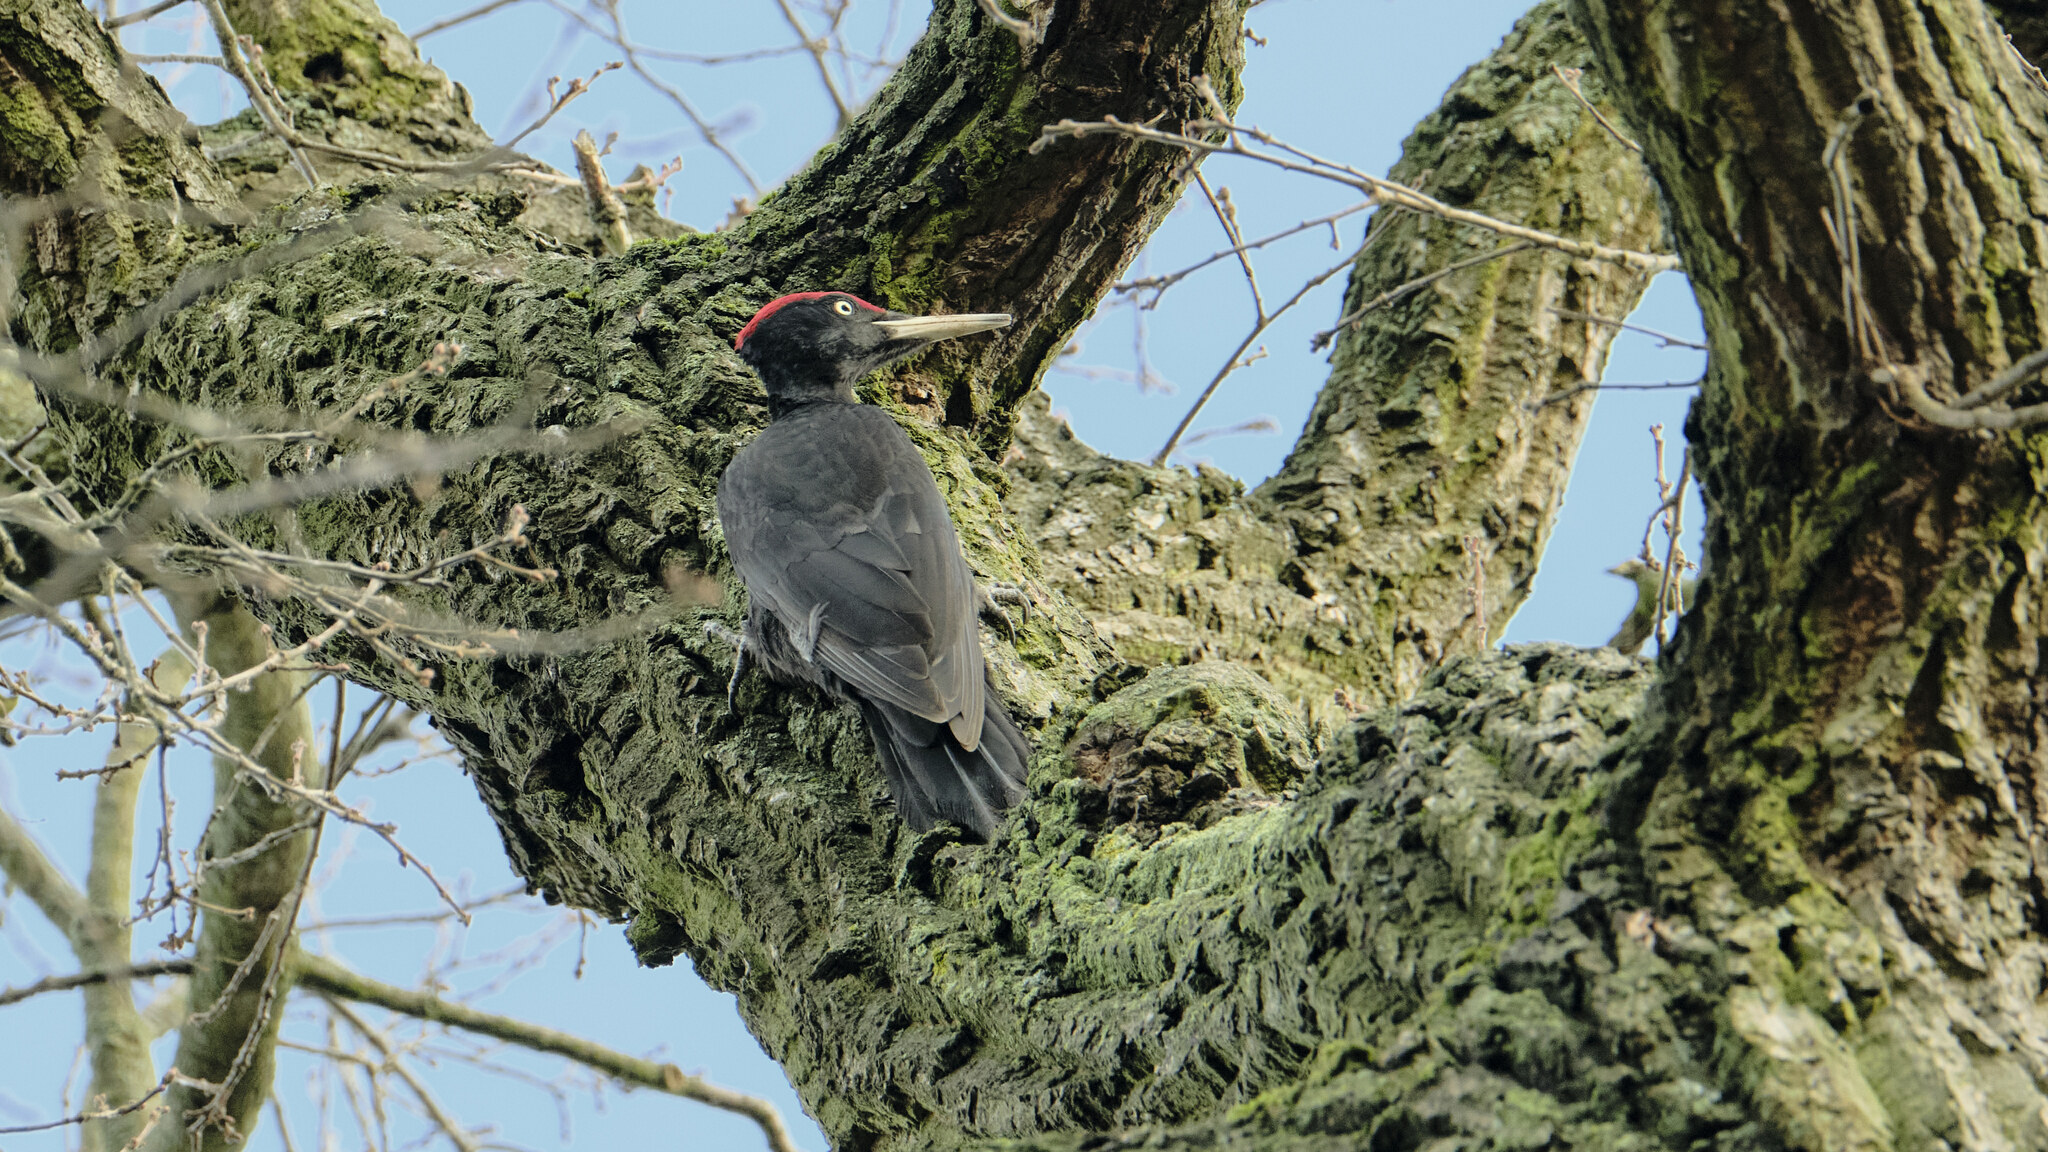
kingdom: Animalia
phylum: Chordata
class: Aves
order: Piciformes
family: Picidae
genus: Dryocopus
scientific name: Dryocopus martius
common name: Black woodpecker
